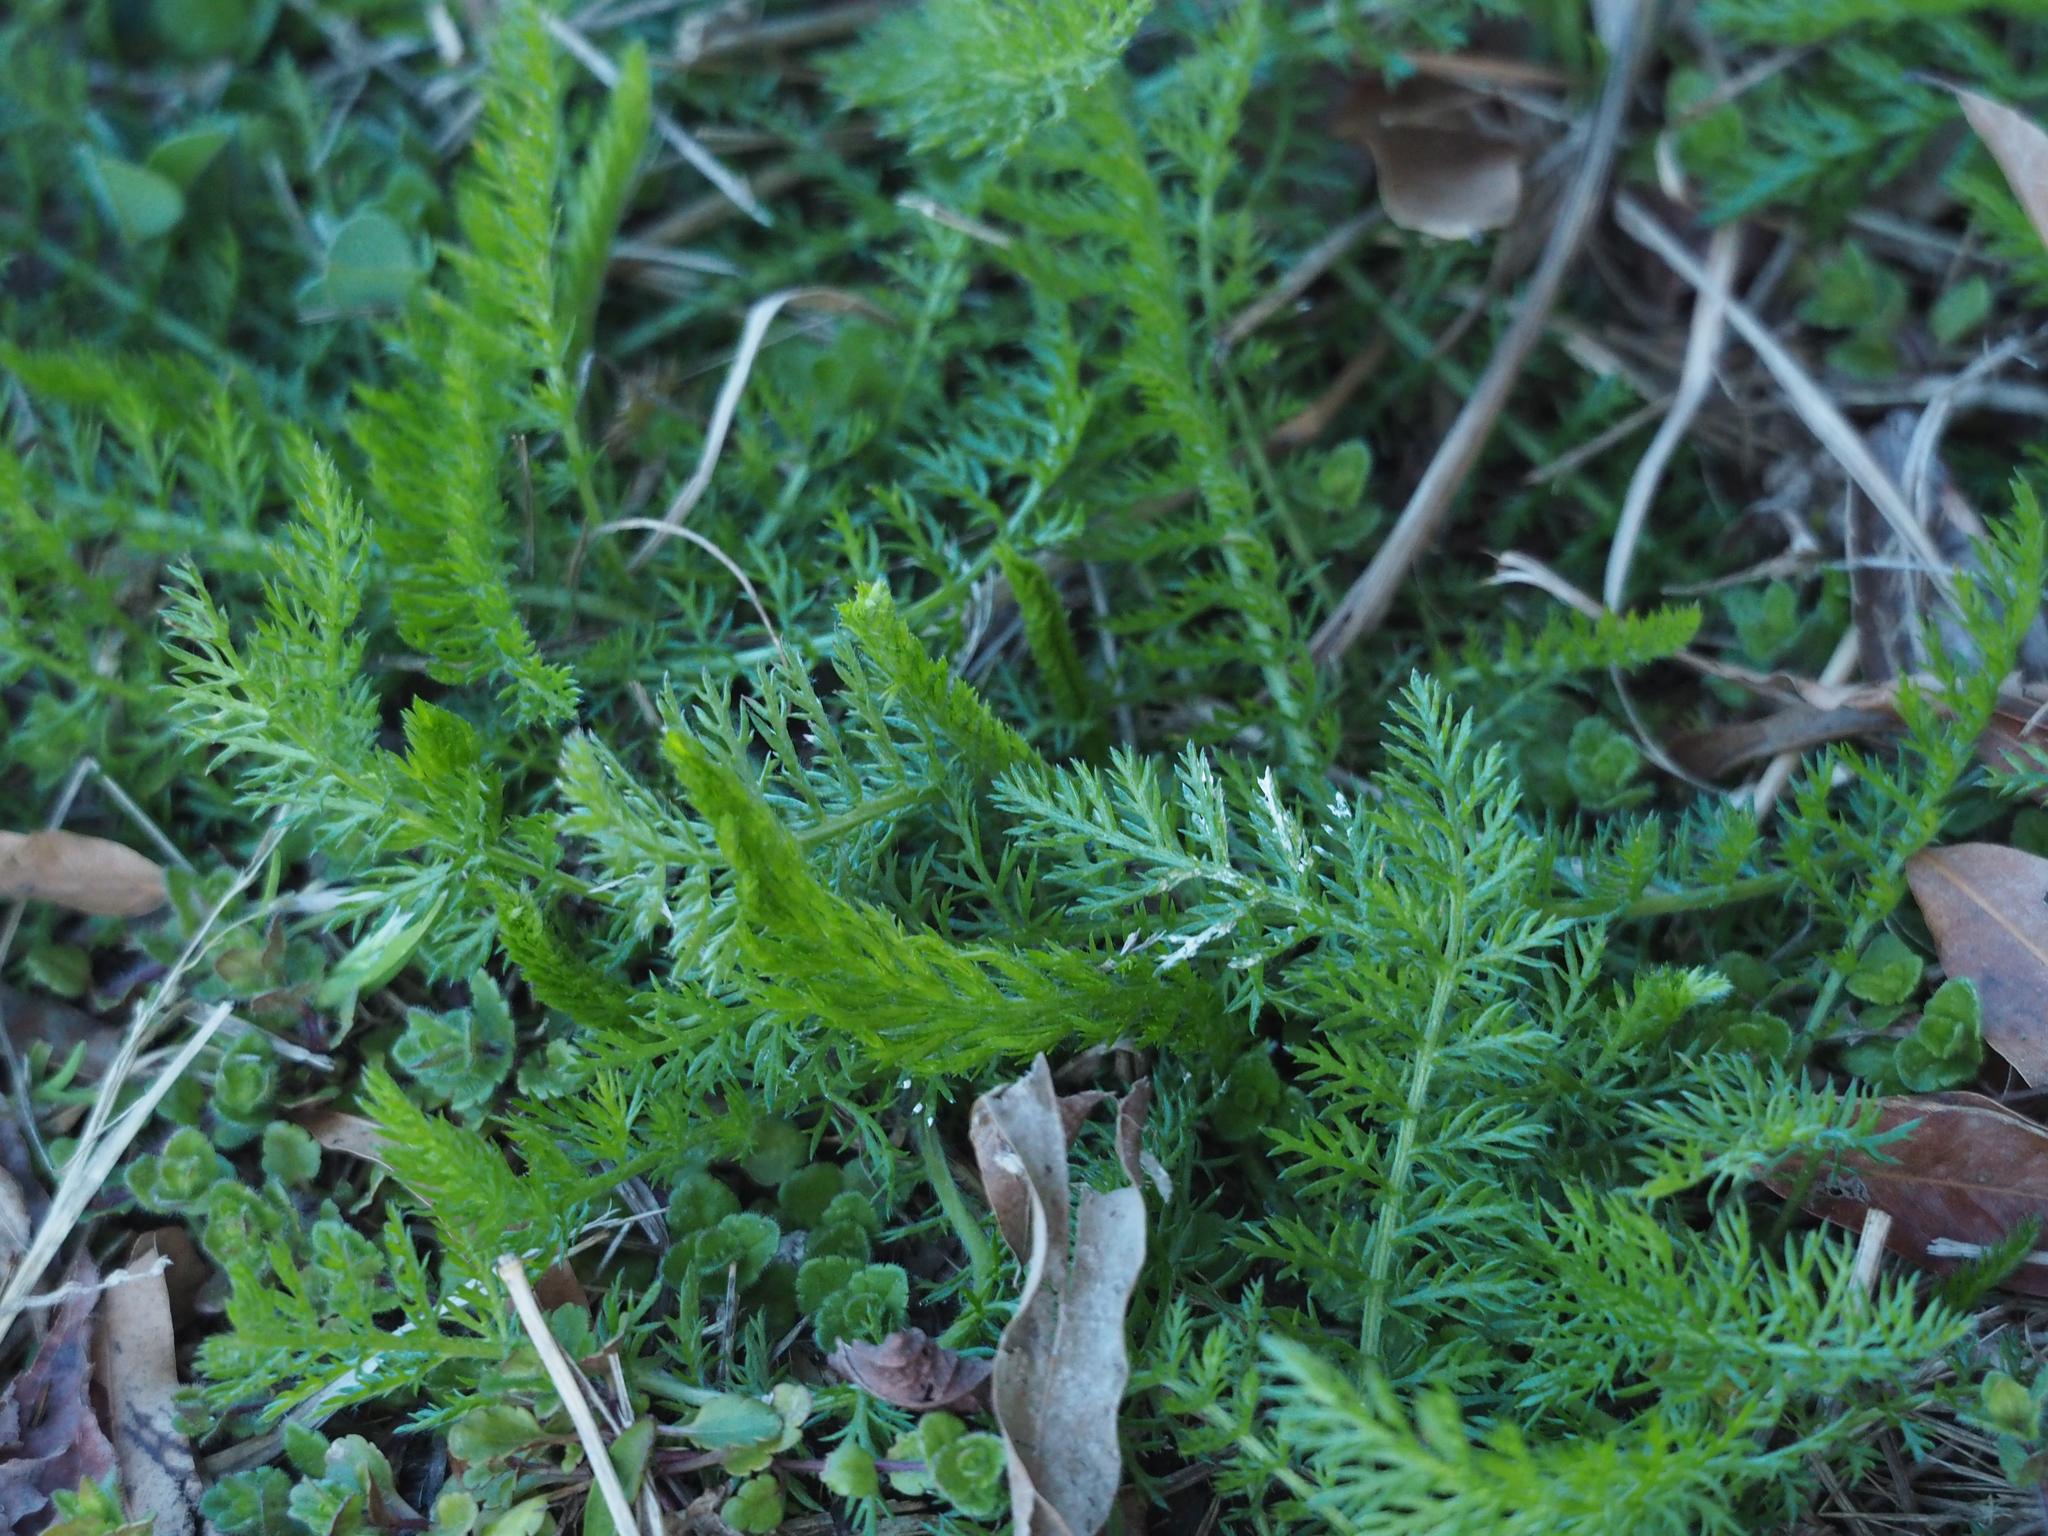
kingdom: Plantae
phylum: Tracheophyta
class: Magnoliopsida
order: Asterales
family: Asteraceae
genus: Achillea
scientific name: Achillea millefolium
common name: Yarrow
